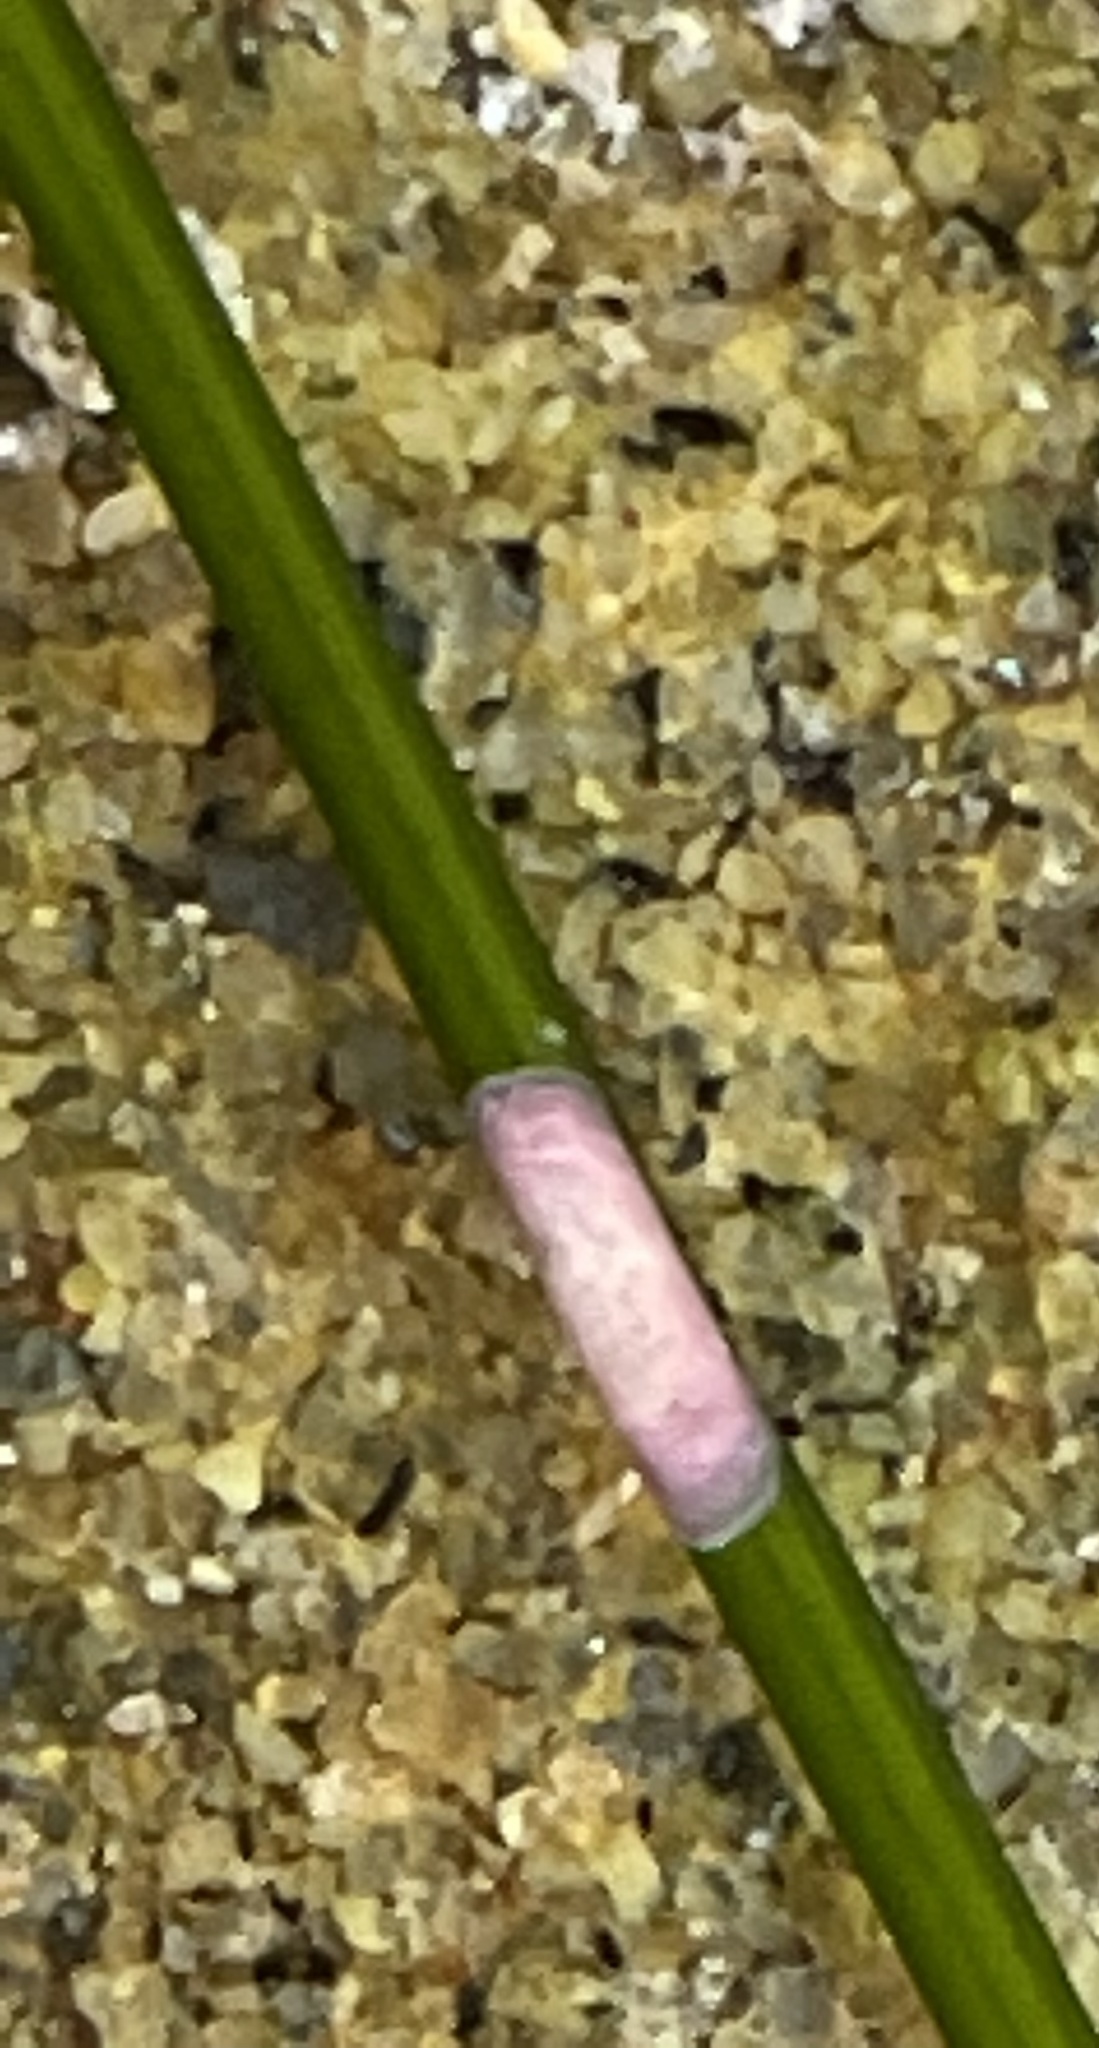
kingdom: Plantae
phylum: Rhodophyta
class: Florideophyceae
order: Corallinales
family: Hapalidiaceae
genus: Melobesia
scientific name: Melobesia mediocris
